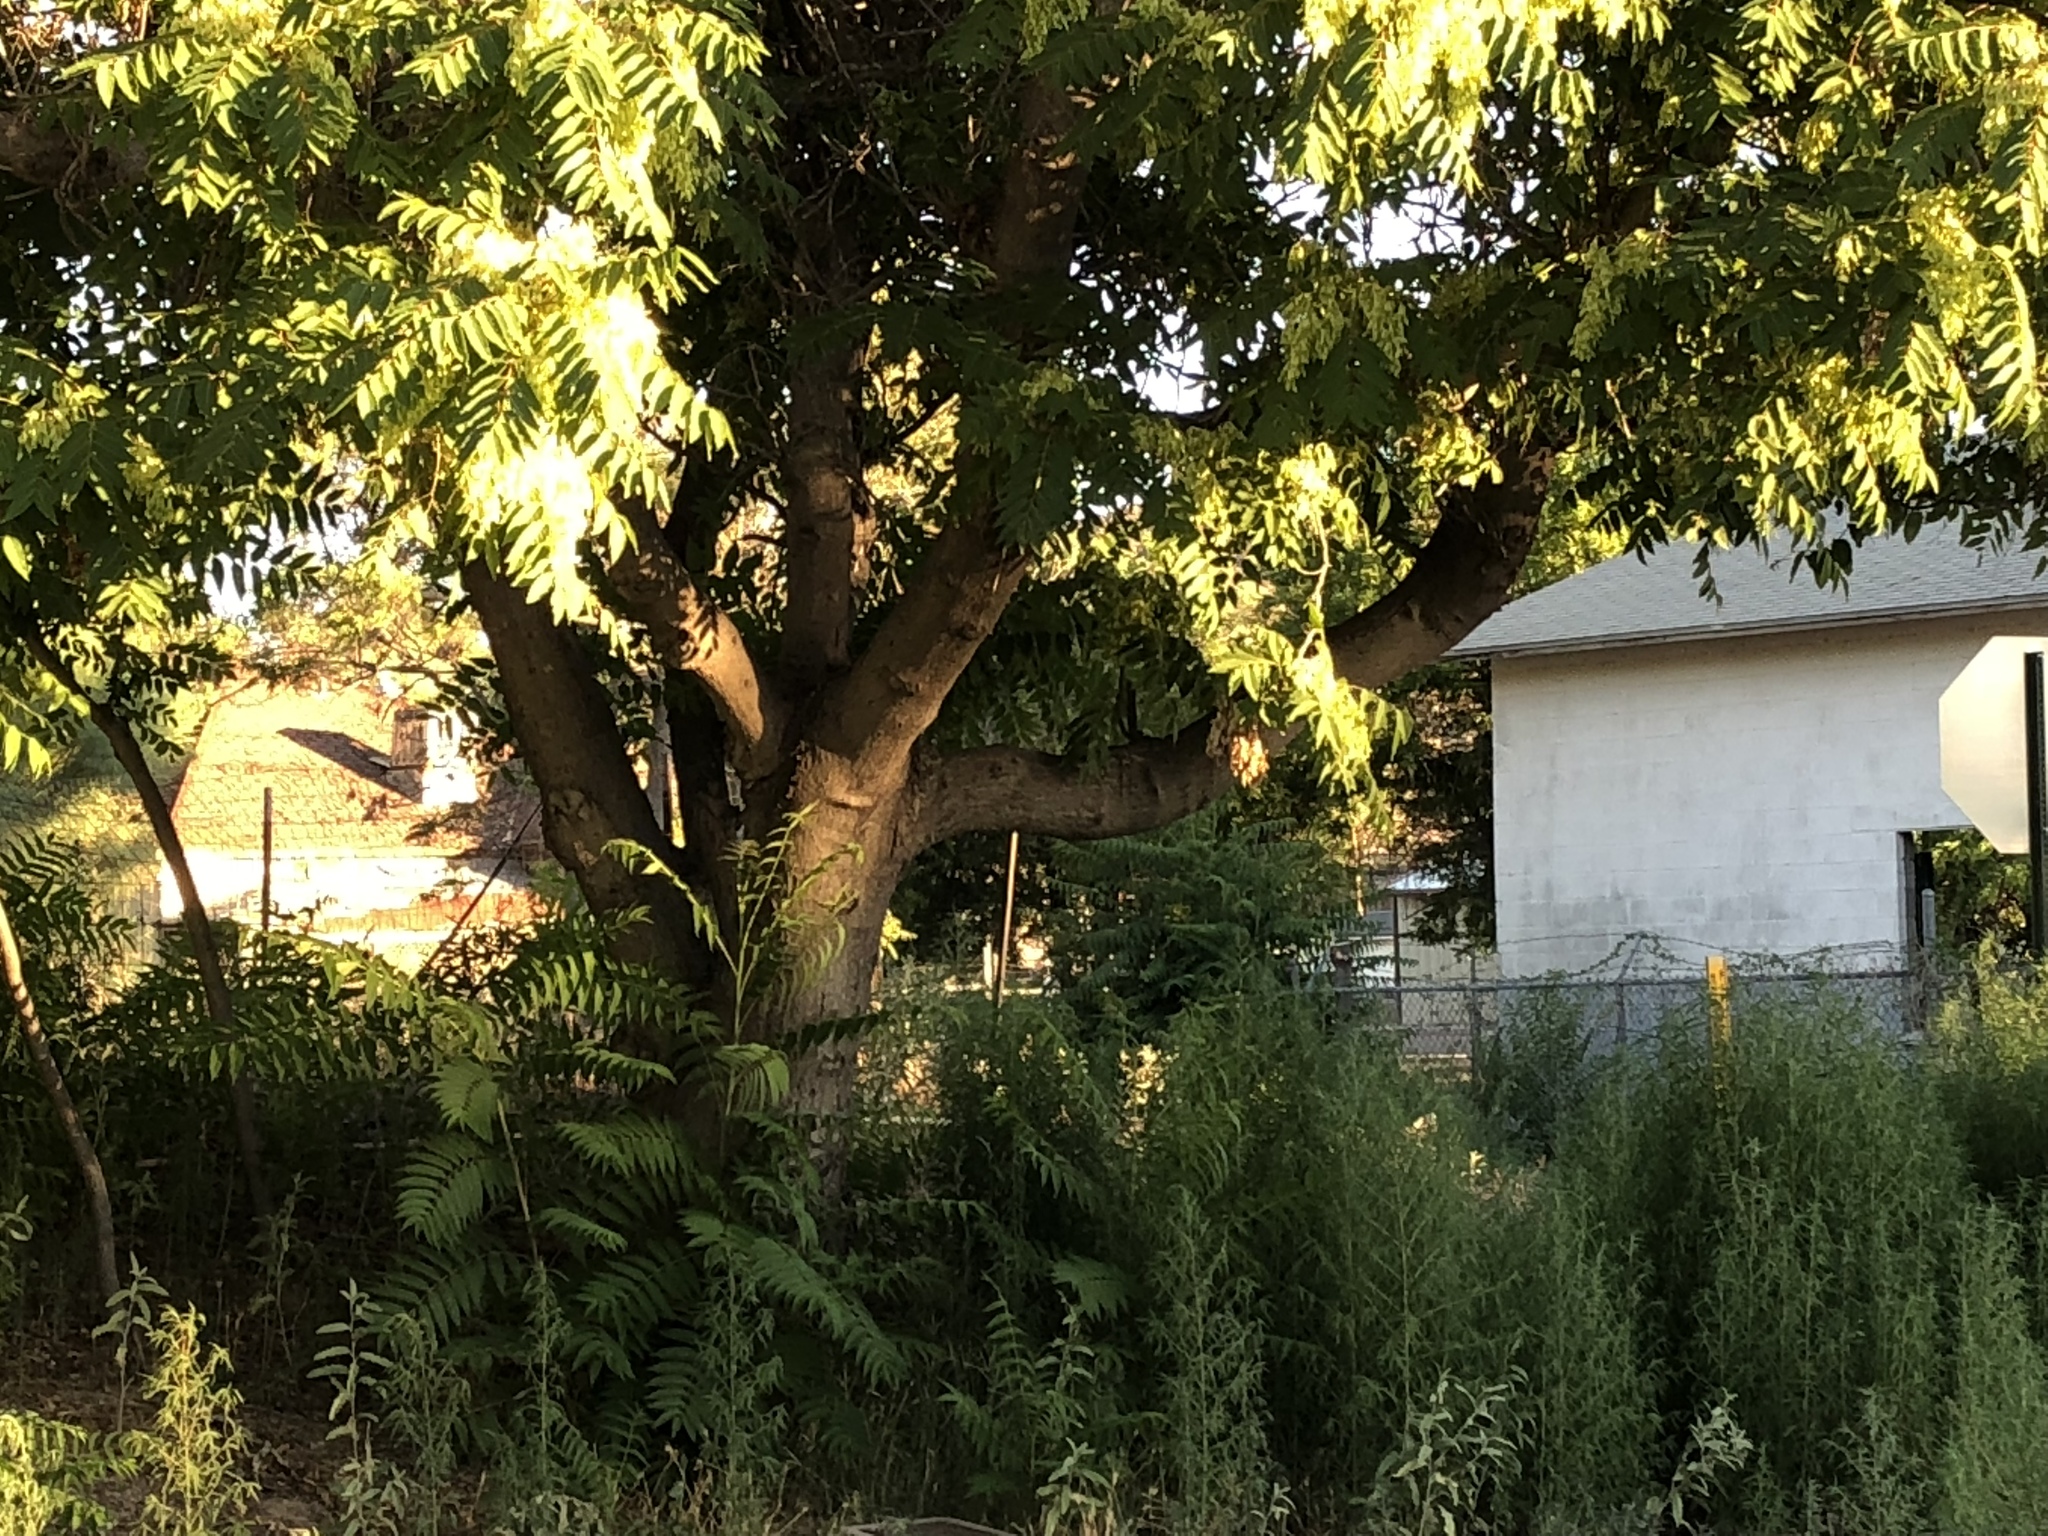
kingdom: Plantae
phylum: Tracheophyta
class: Magnoliopsida
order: Sapindales
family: Simaroubaceae
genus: Ailanthus
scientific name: Ailanthus altissima
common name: Tree-of-heaven
